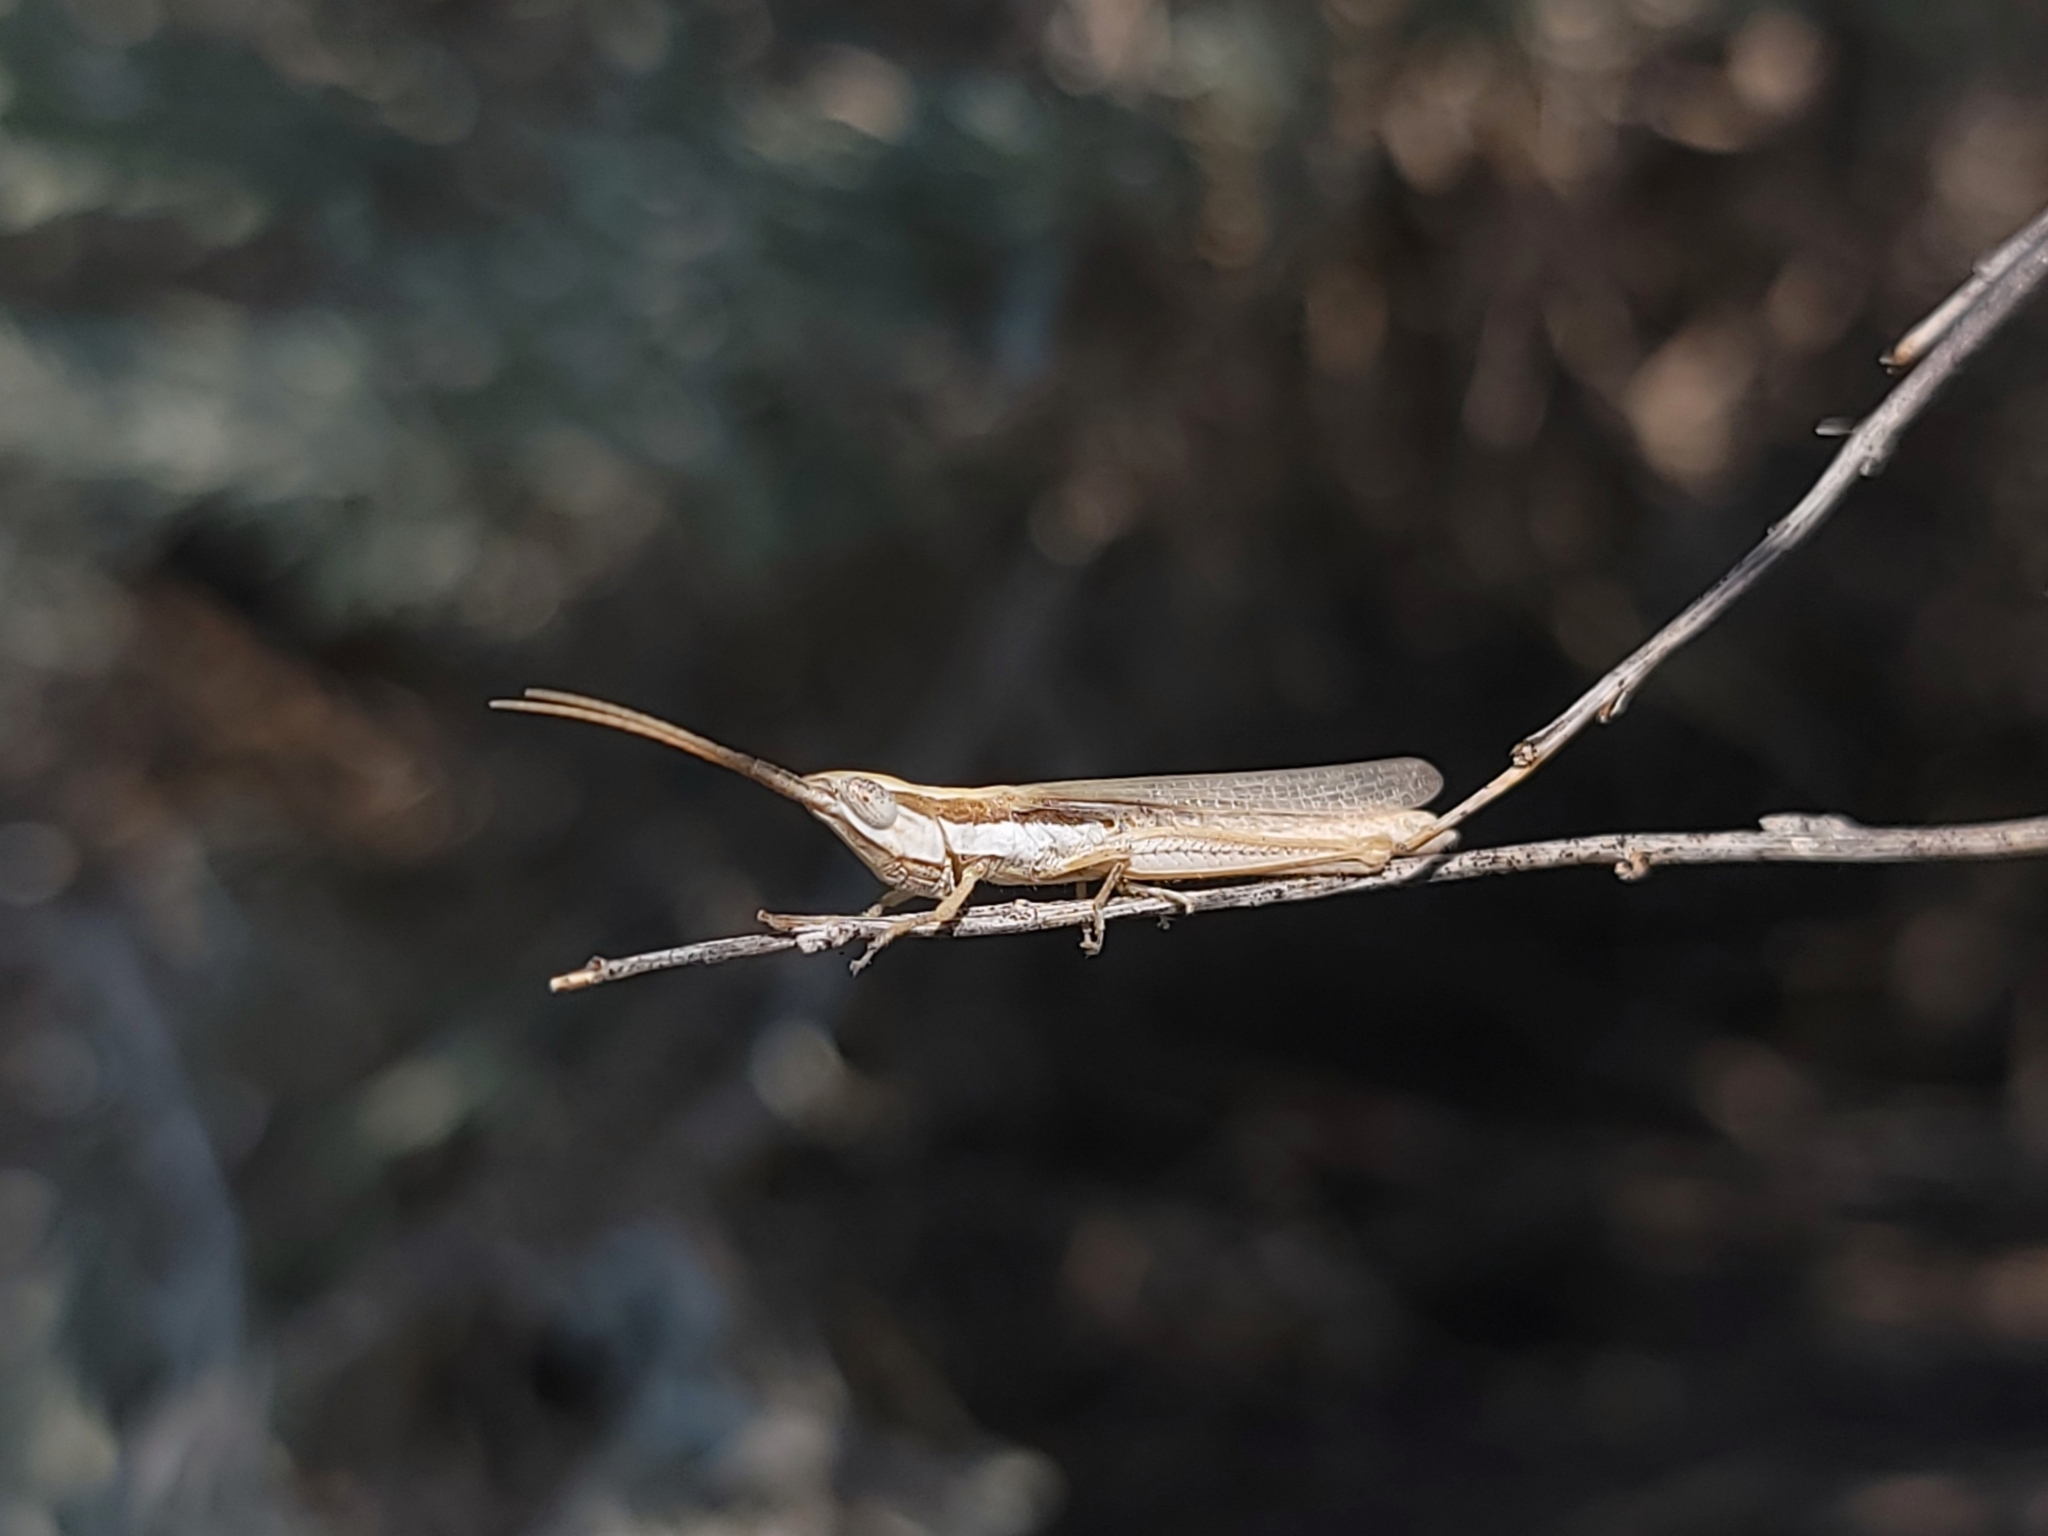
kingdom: Animalia
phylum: Arthropoda
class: Insecta
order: Orthoptera
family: Acrididae
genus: Paropomala
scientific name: Paropomala pallida
